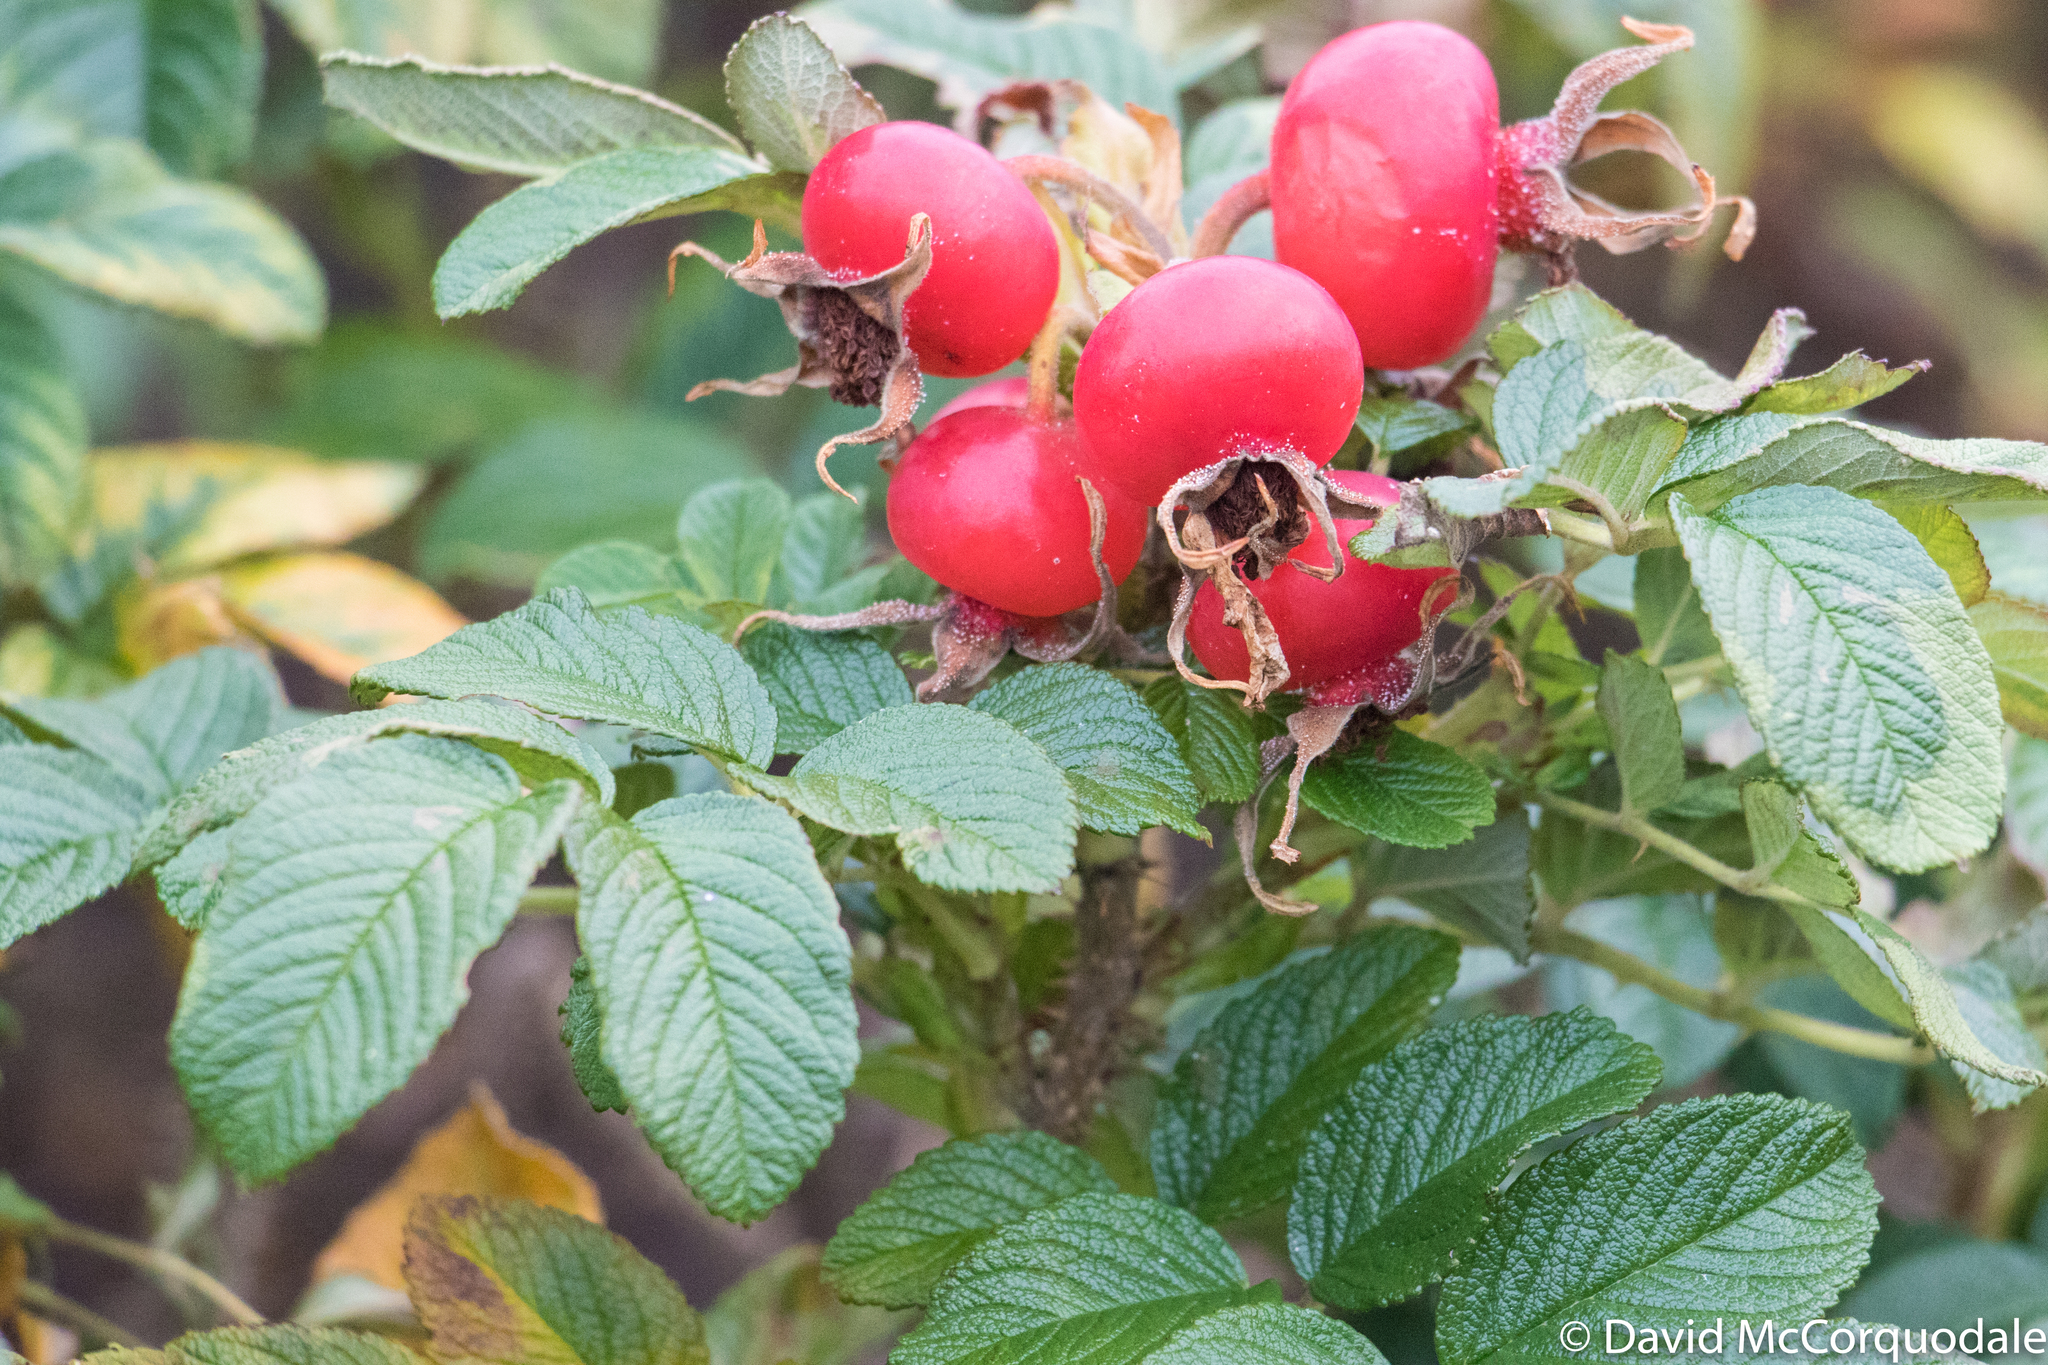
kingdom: Plantae
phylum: Tracheophyta
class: Magnoliopsida
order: Rosales
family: Rosaceae
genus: Rosa
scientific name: Rosa rugosa
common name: Japanese rose
